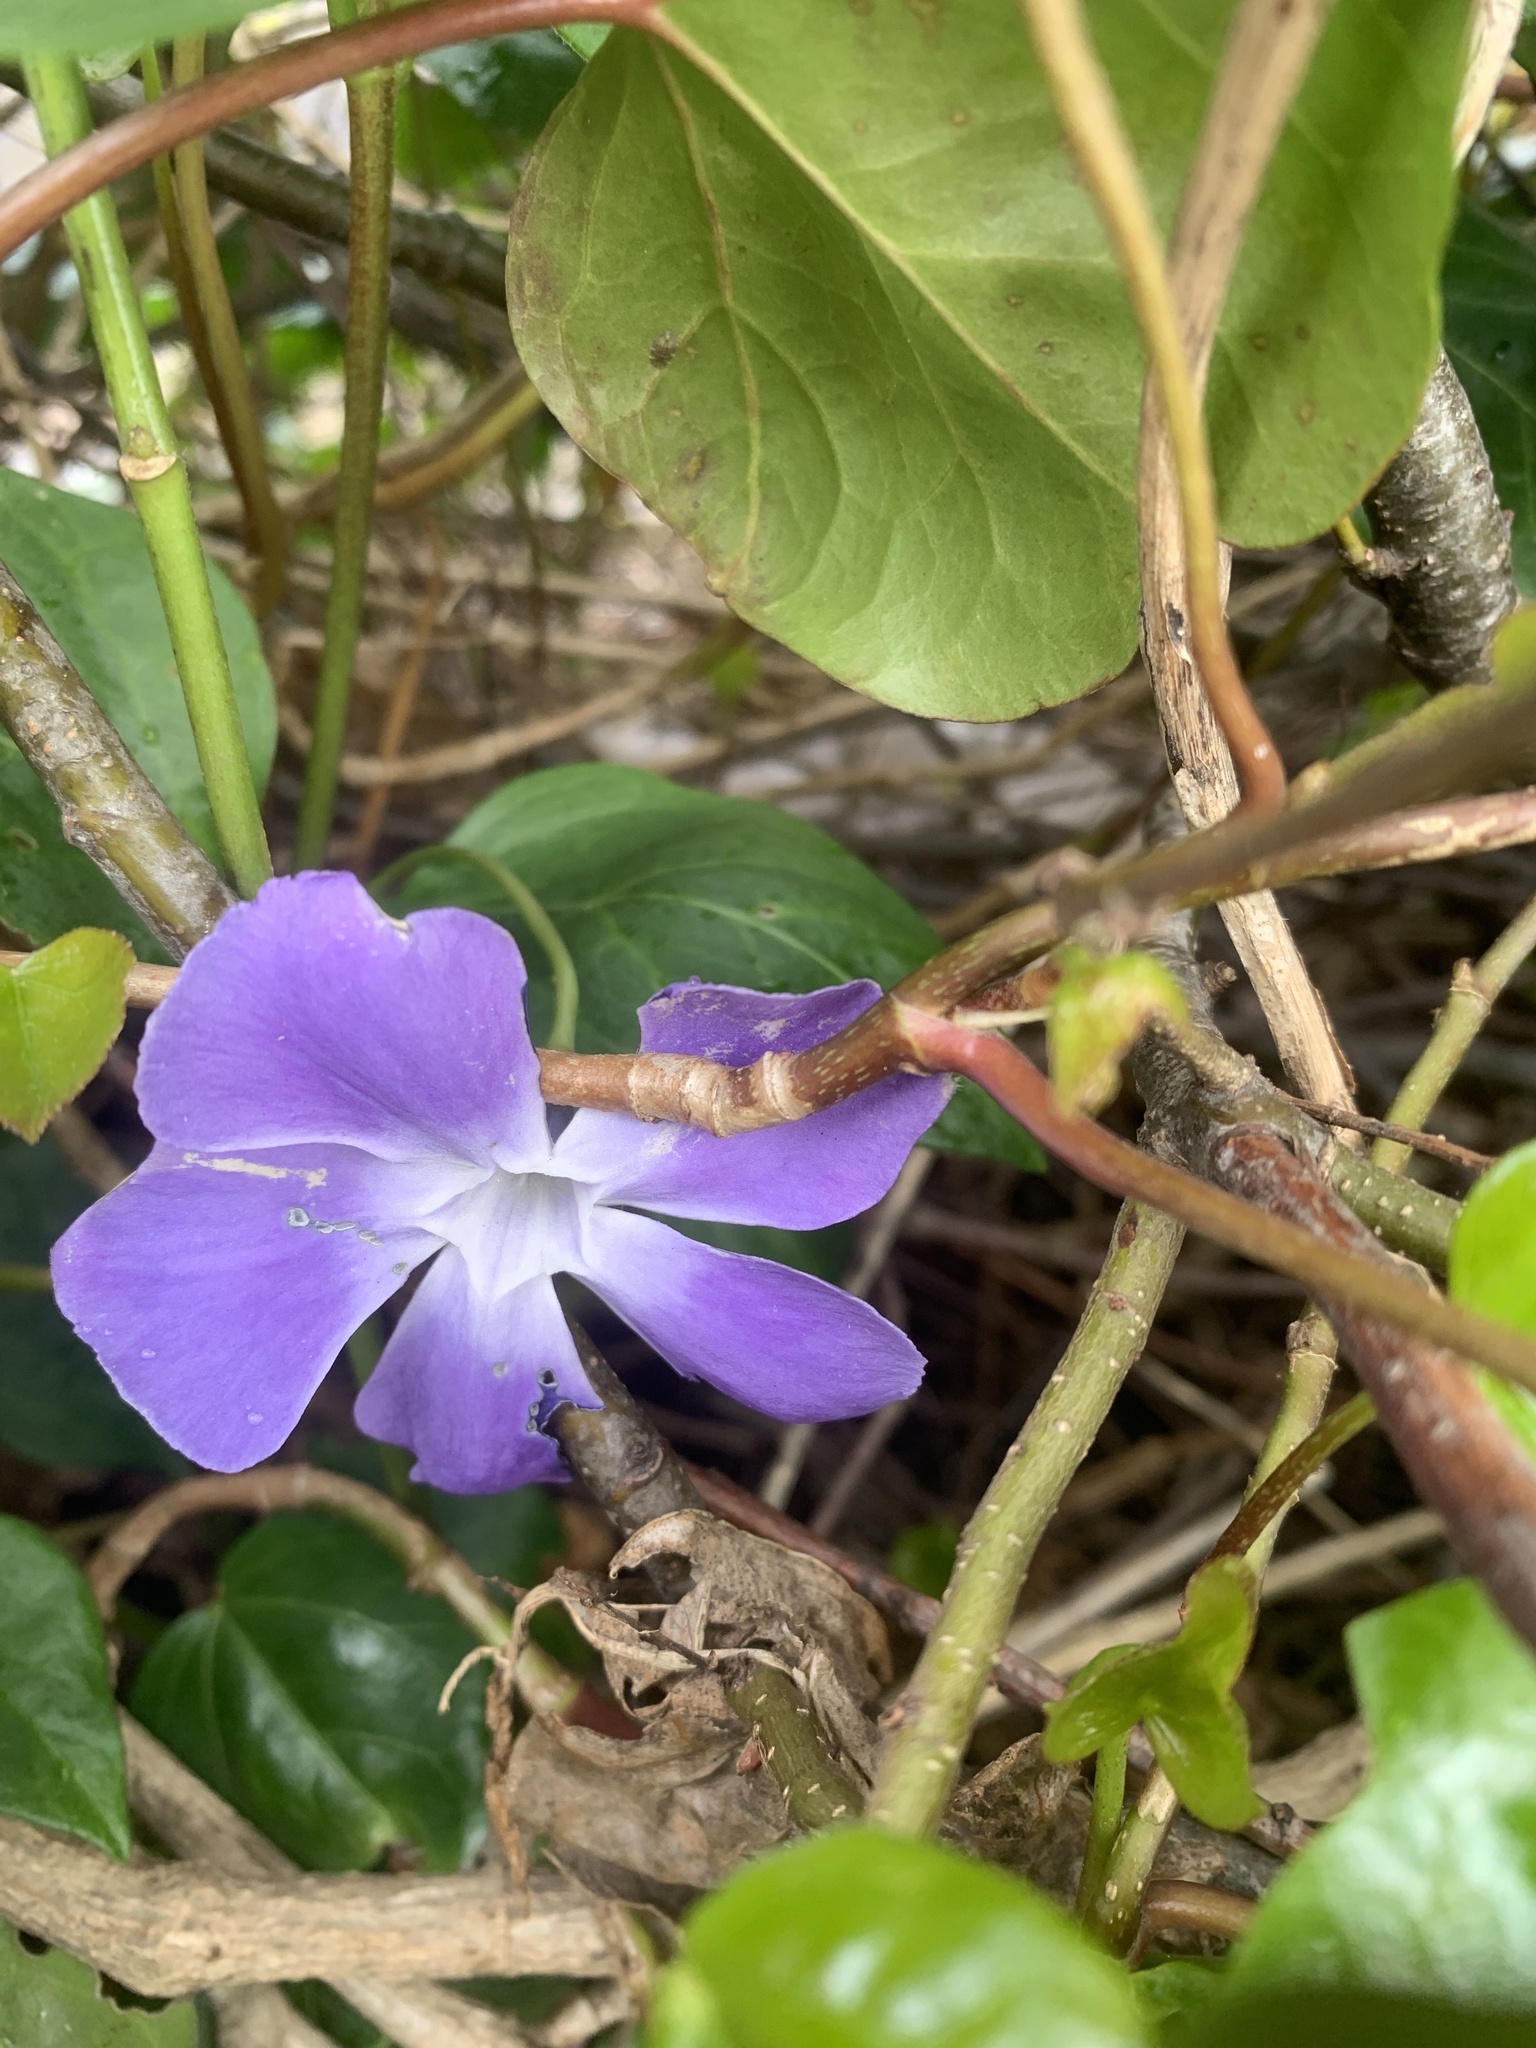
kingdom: Plantae
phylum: Tracheophyta
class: Magnoliopsida
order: Gentianales
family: Apocynaceae
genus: Vinca
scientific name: Vinca major
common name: Greater periwinkle
